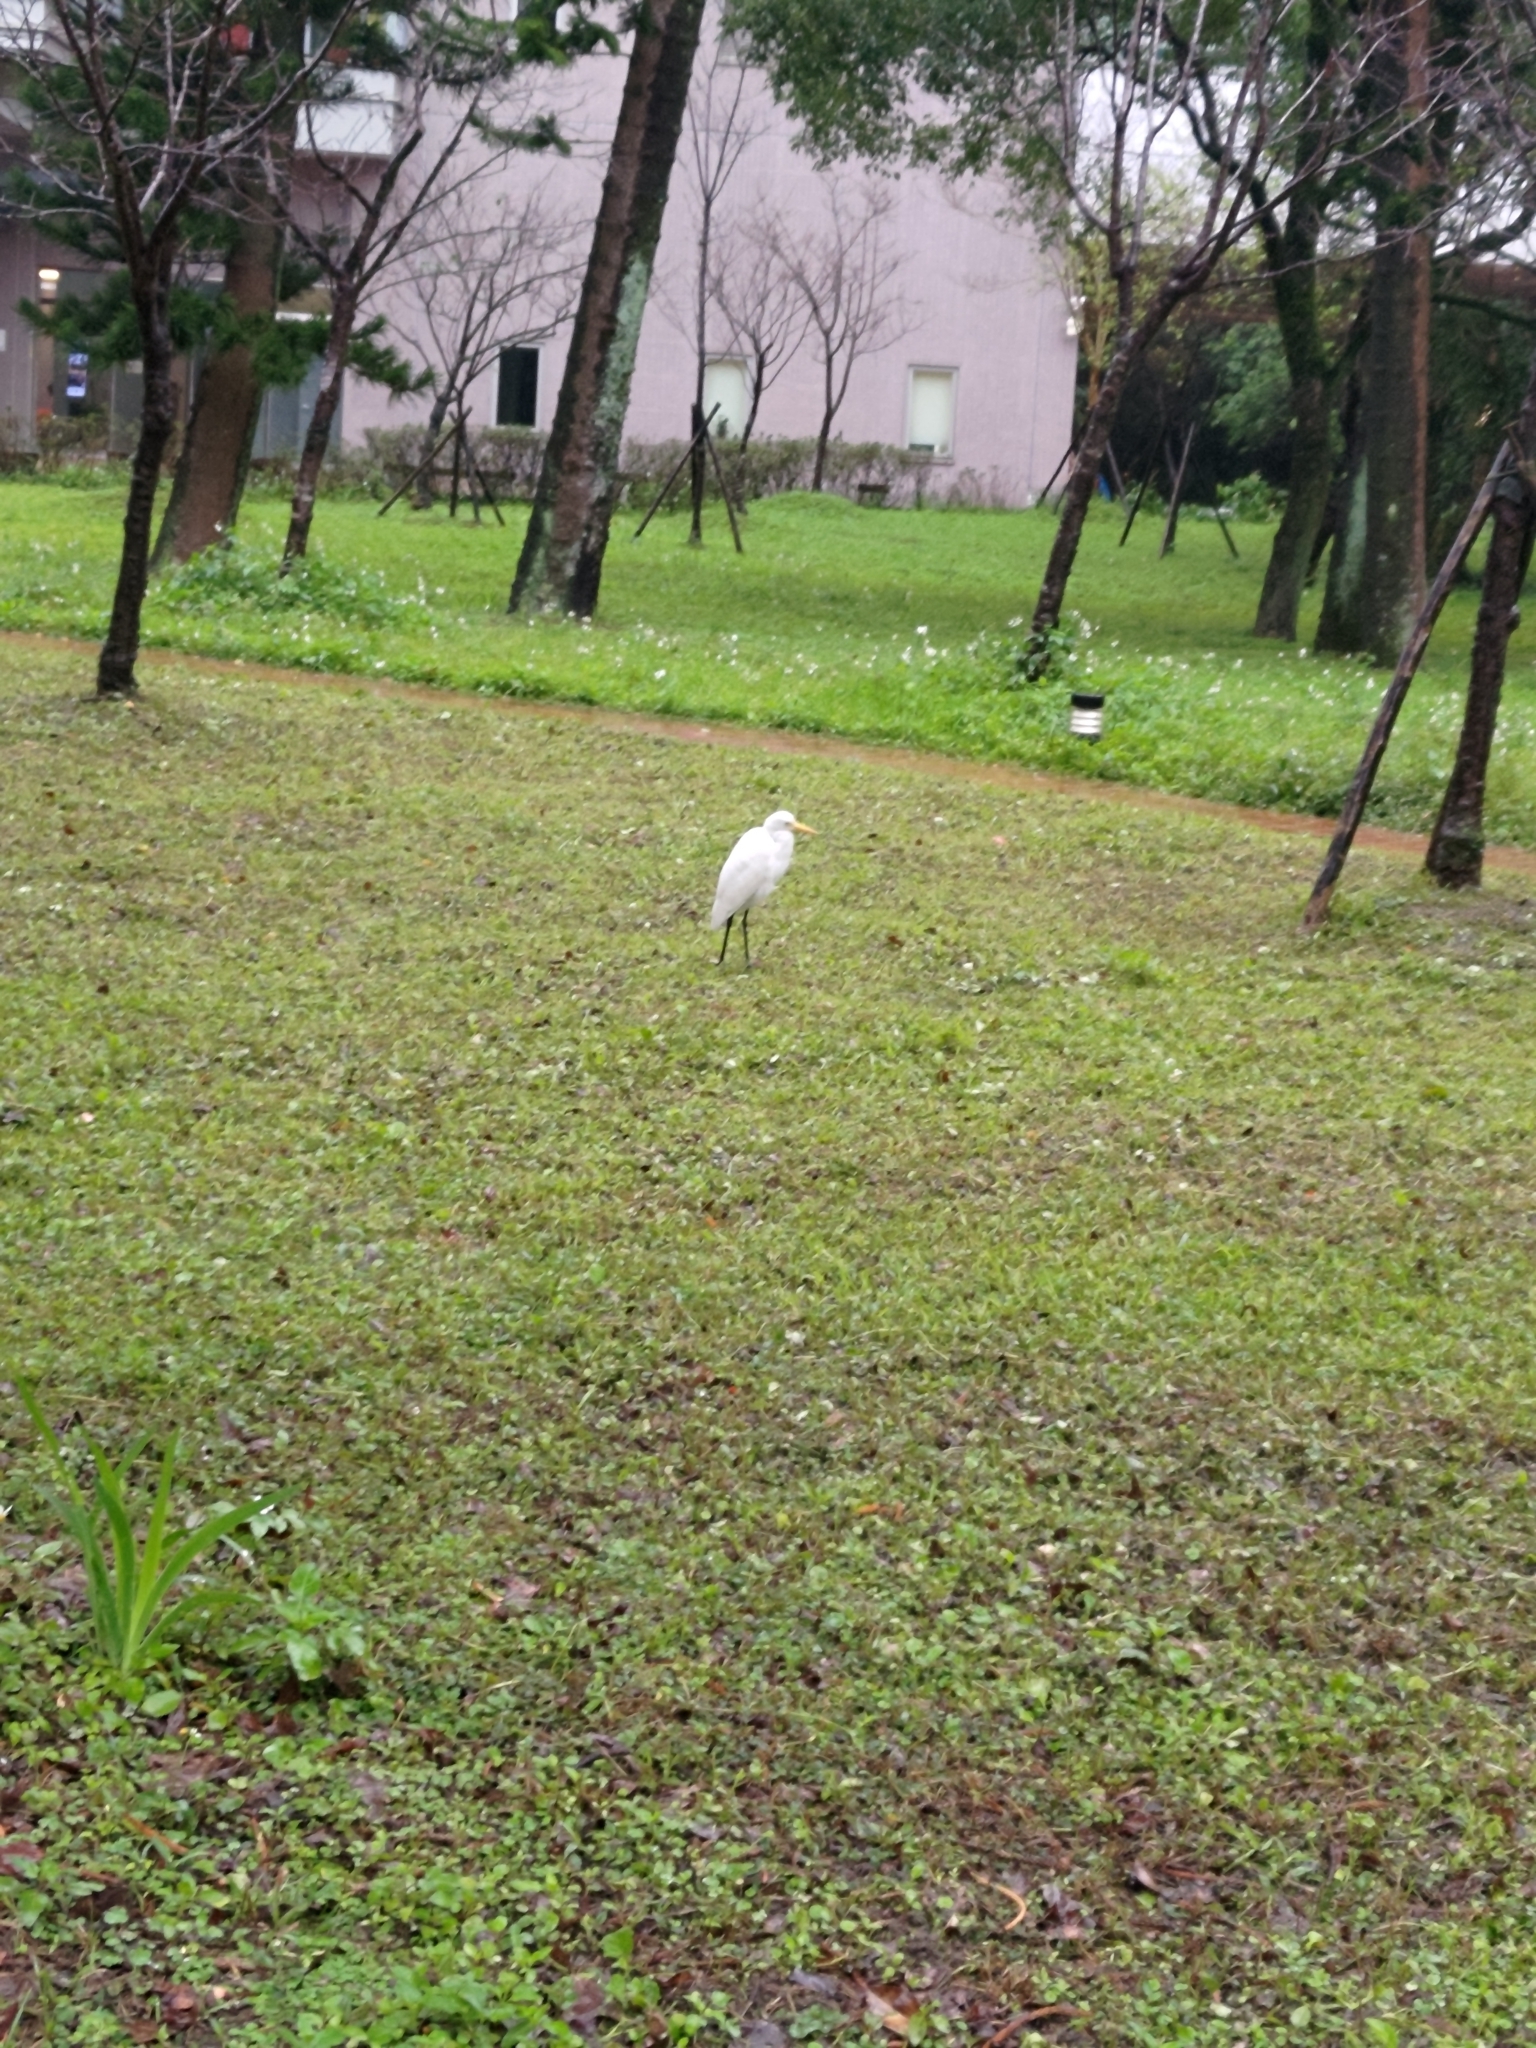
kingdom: Animalia
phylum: Chordata
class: Aves
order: Pelecaniformes
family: Ardeidae
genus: Bubulcus
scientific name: Bubulcus coromandus
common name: Eastern cattle egret
